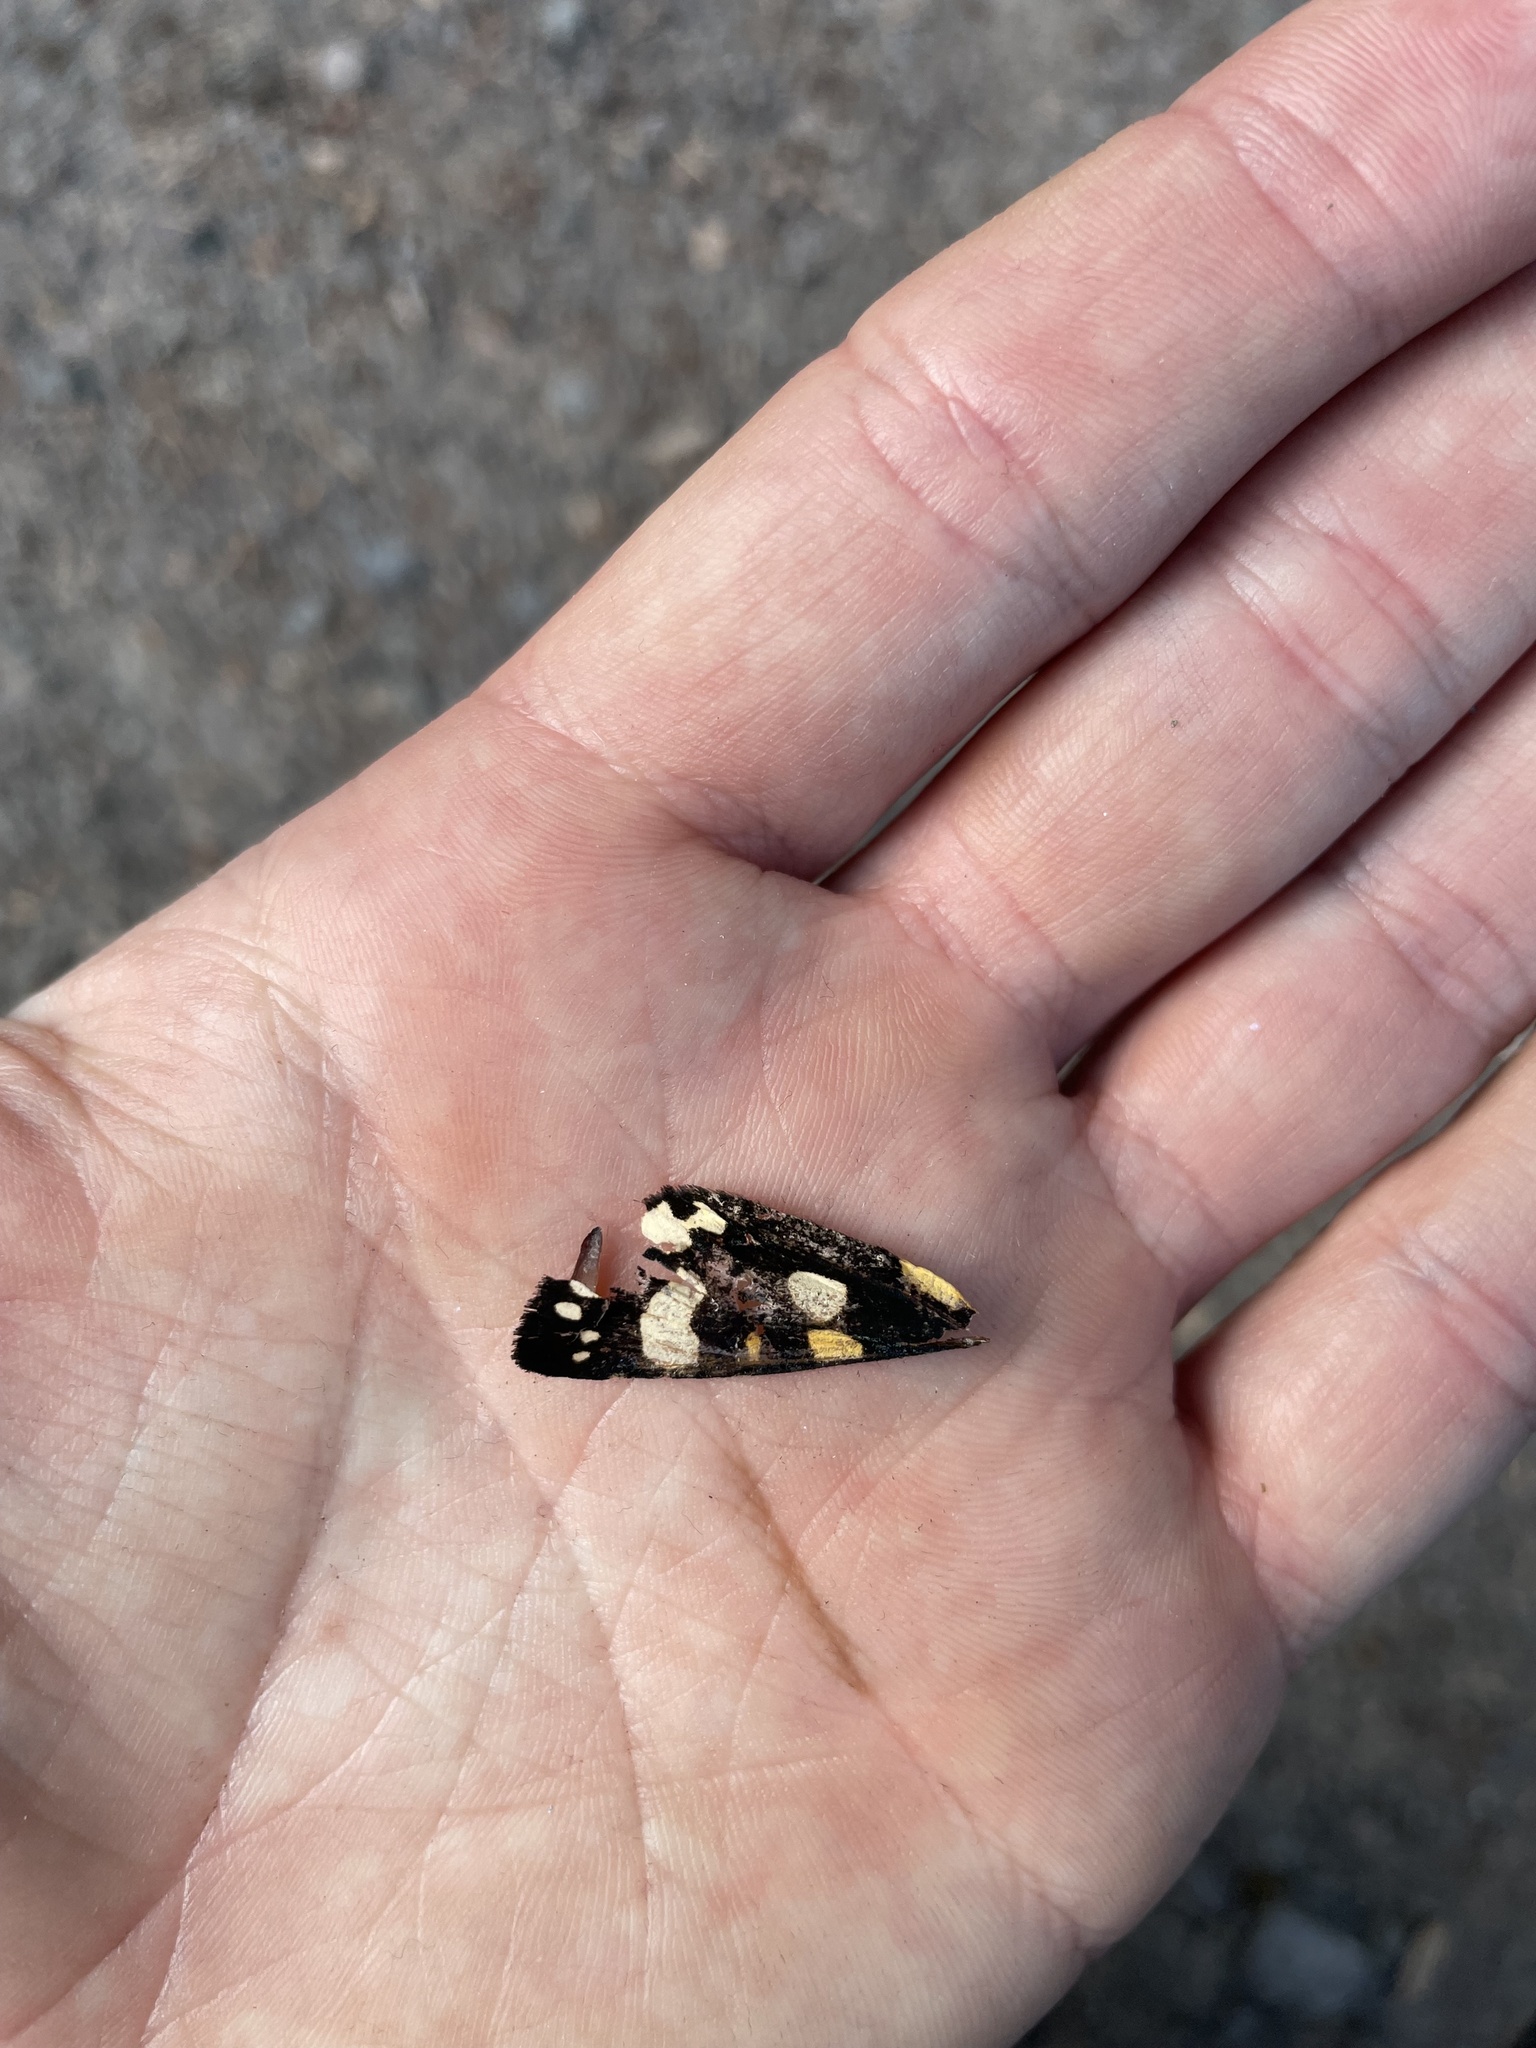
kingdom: Animalia
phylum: Arthropoda
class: Insecta
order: Lepidoptera
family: Erebidae
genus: Callimorpha
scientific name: Callimorpha dominula
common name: Scarlet tiger
